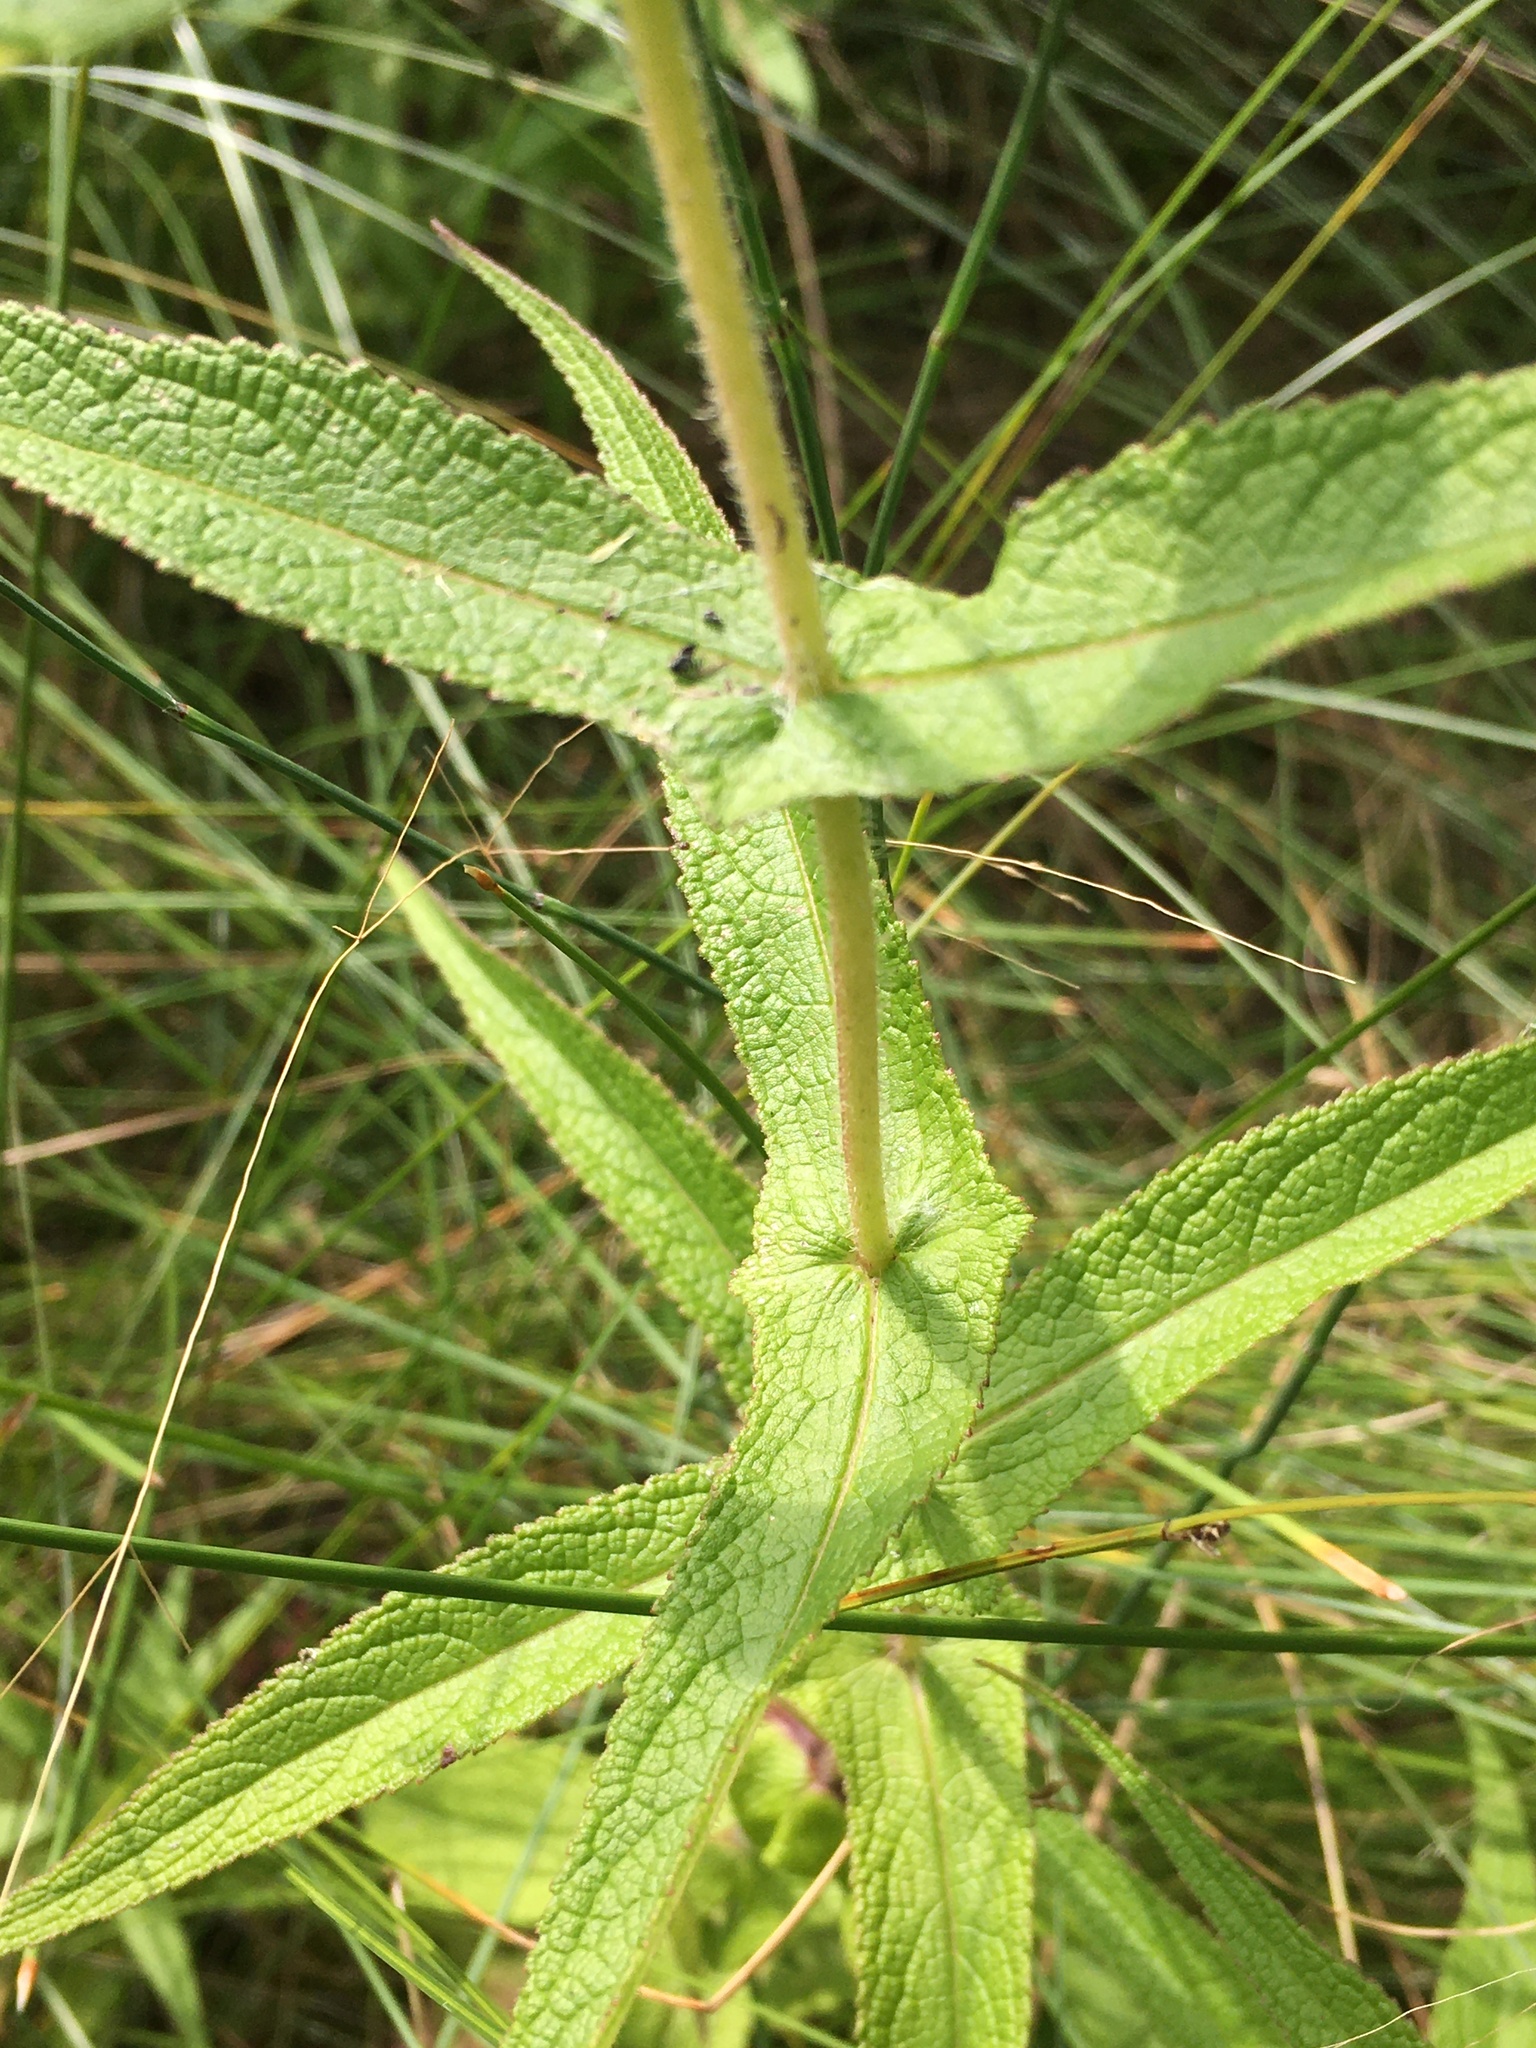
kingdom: Plantae
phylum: Tracheophyta
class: Magnoliopsida
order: Asterales
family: Asteraceae
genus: Eupatorium
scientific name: Eupatorium perfoliatum
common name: Boneset
